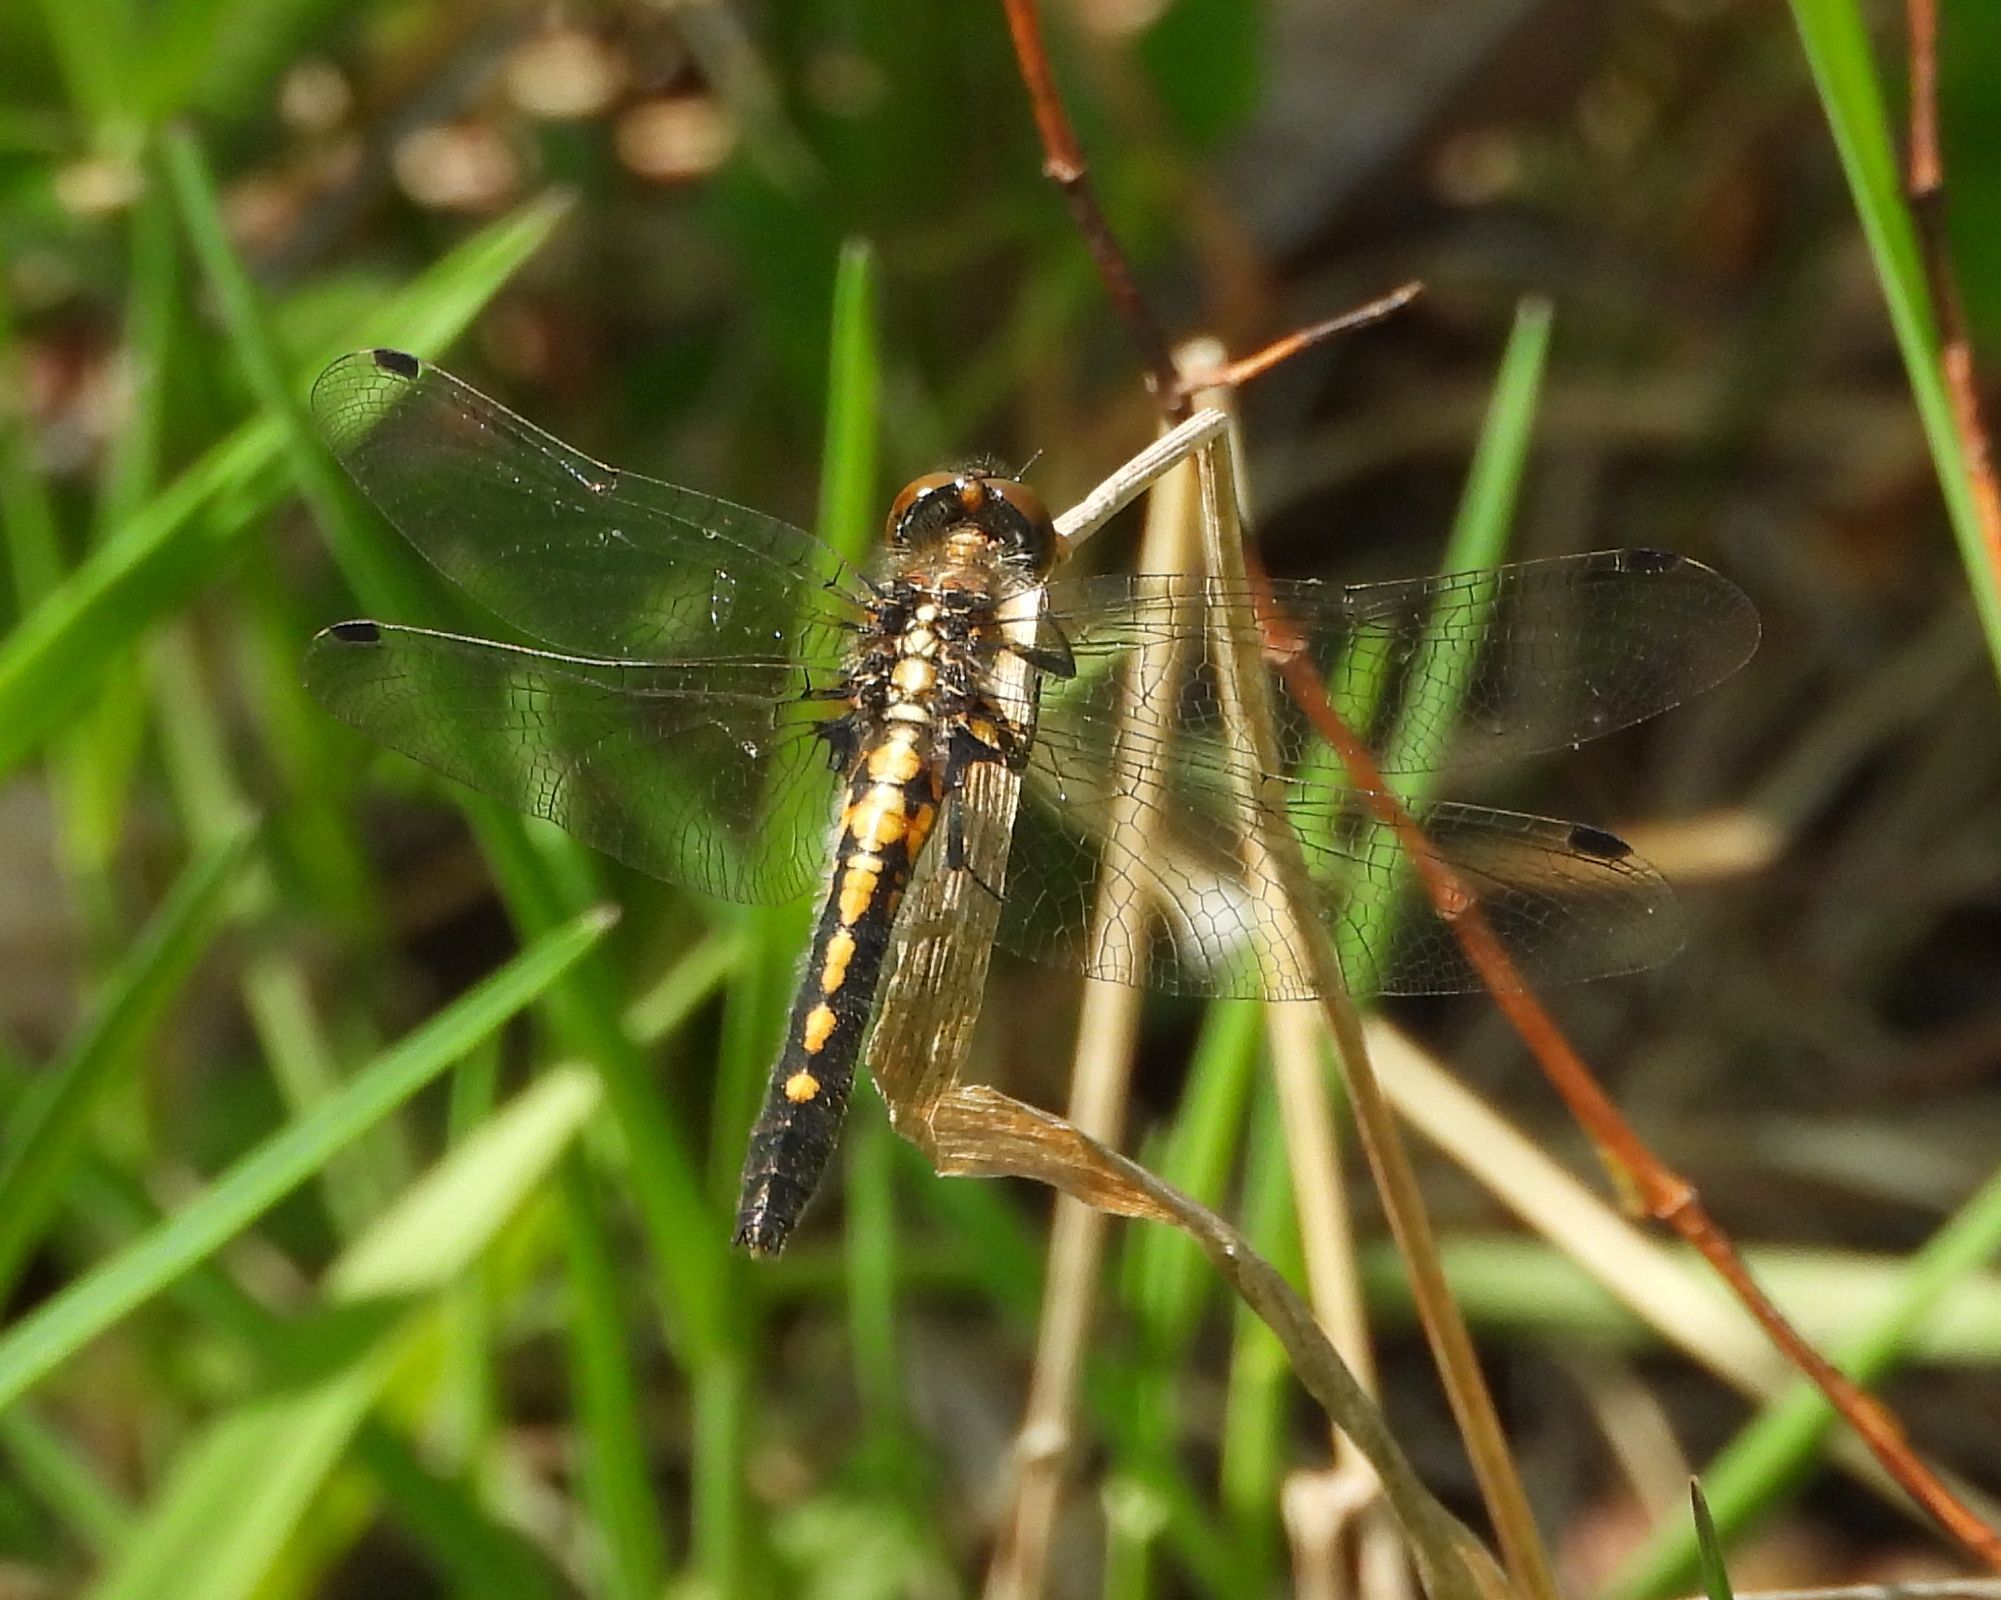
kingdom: Animalia
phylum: Arthropoda
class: Insecta
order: Odonata
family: Libellulidae
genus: Leucorrhinia
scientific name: Leucorrhinia intacta
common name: Dot-tailed whiteface
